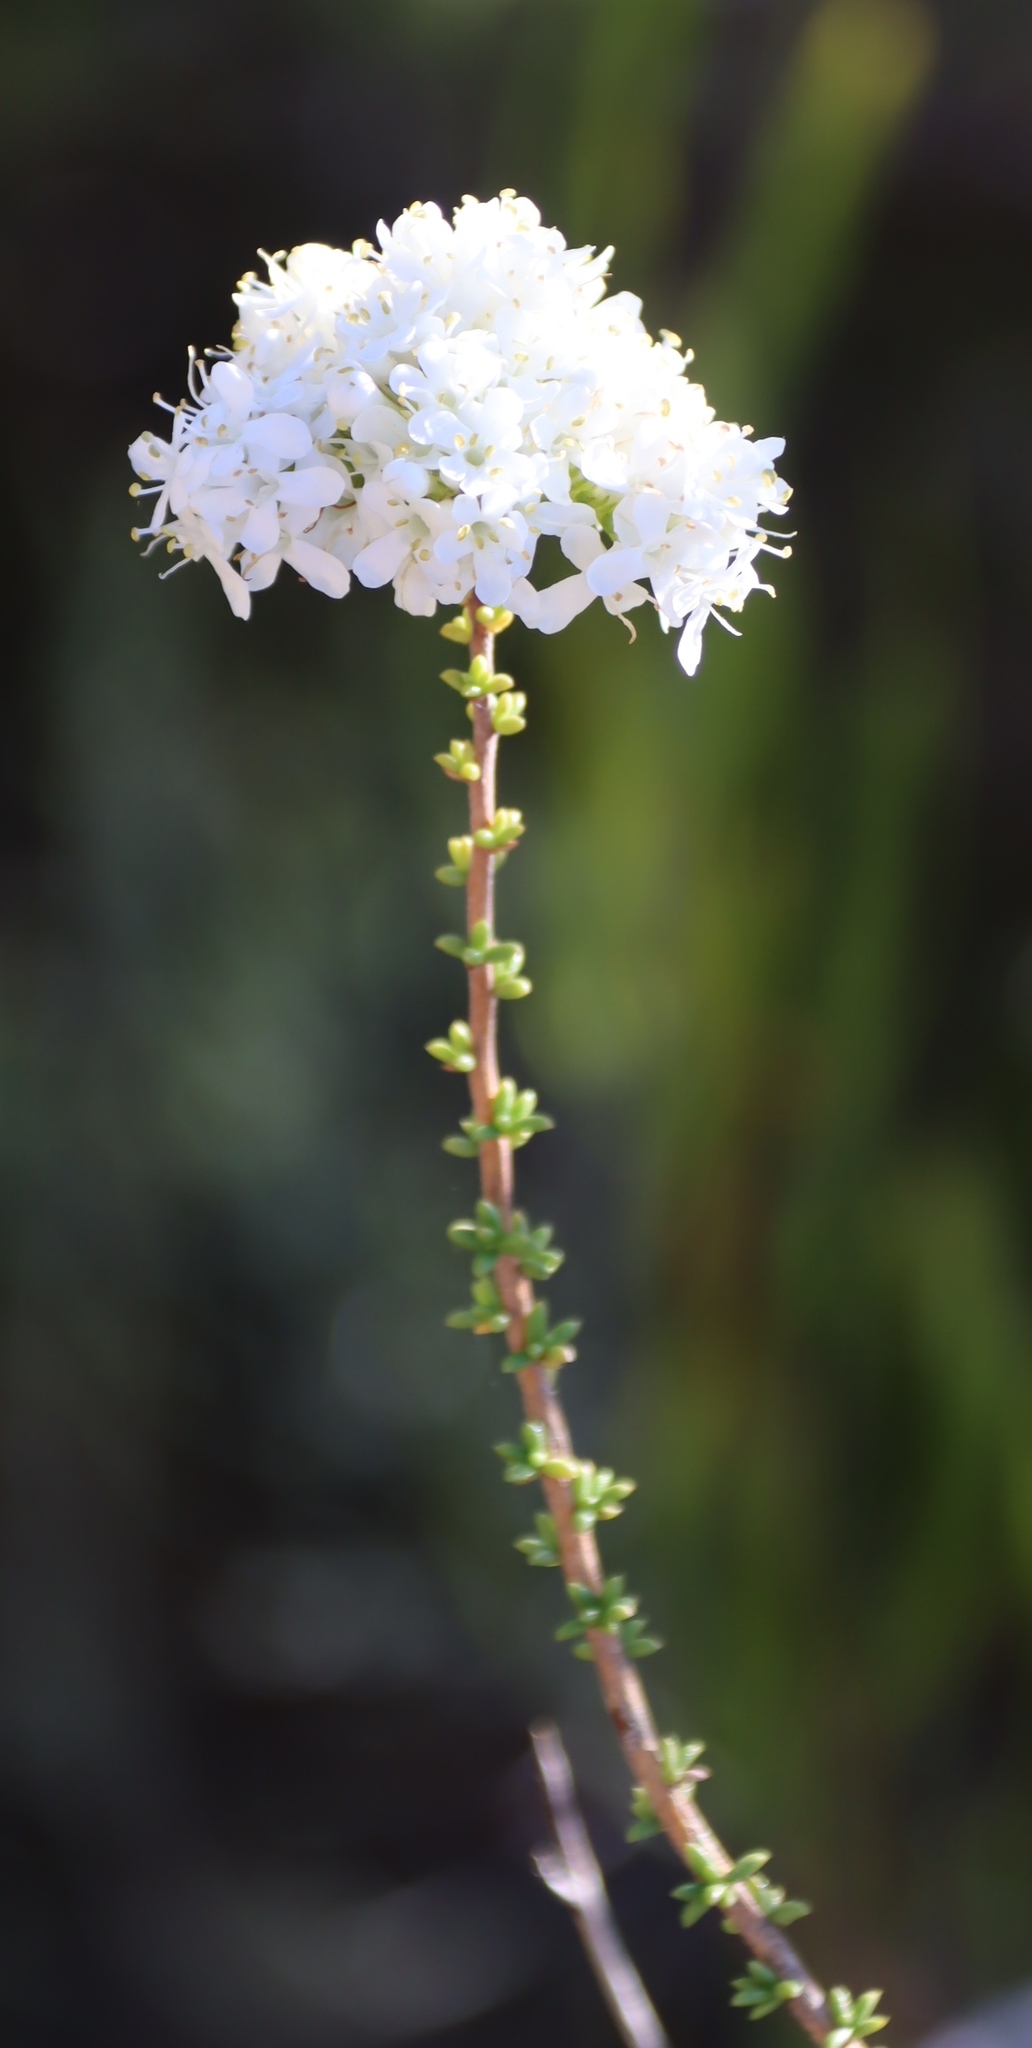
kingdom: Plantae
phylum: Tracheophyta
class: Magnoliopsida
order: Lamiales
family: Scrophulariaceae
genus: Selago
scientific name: Selago brevifolia
